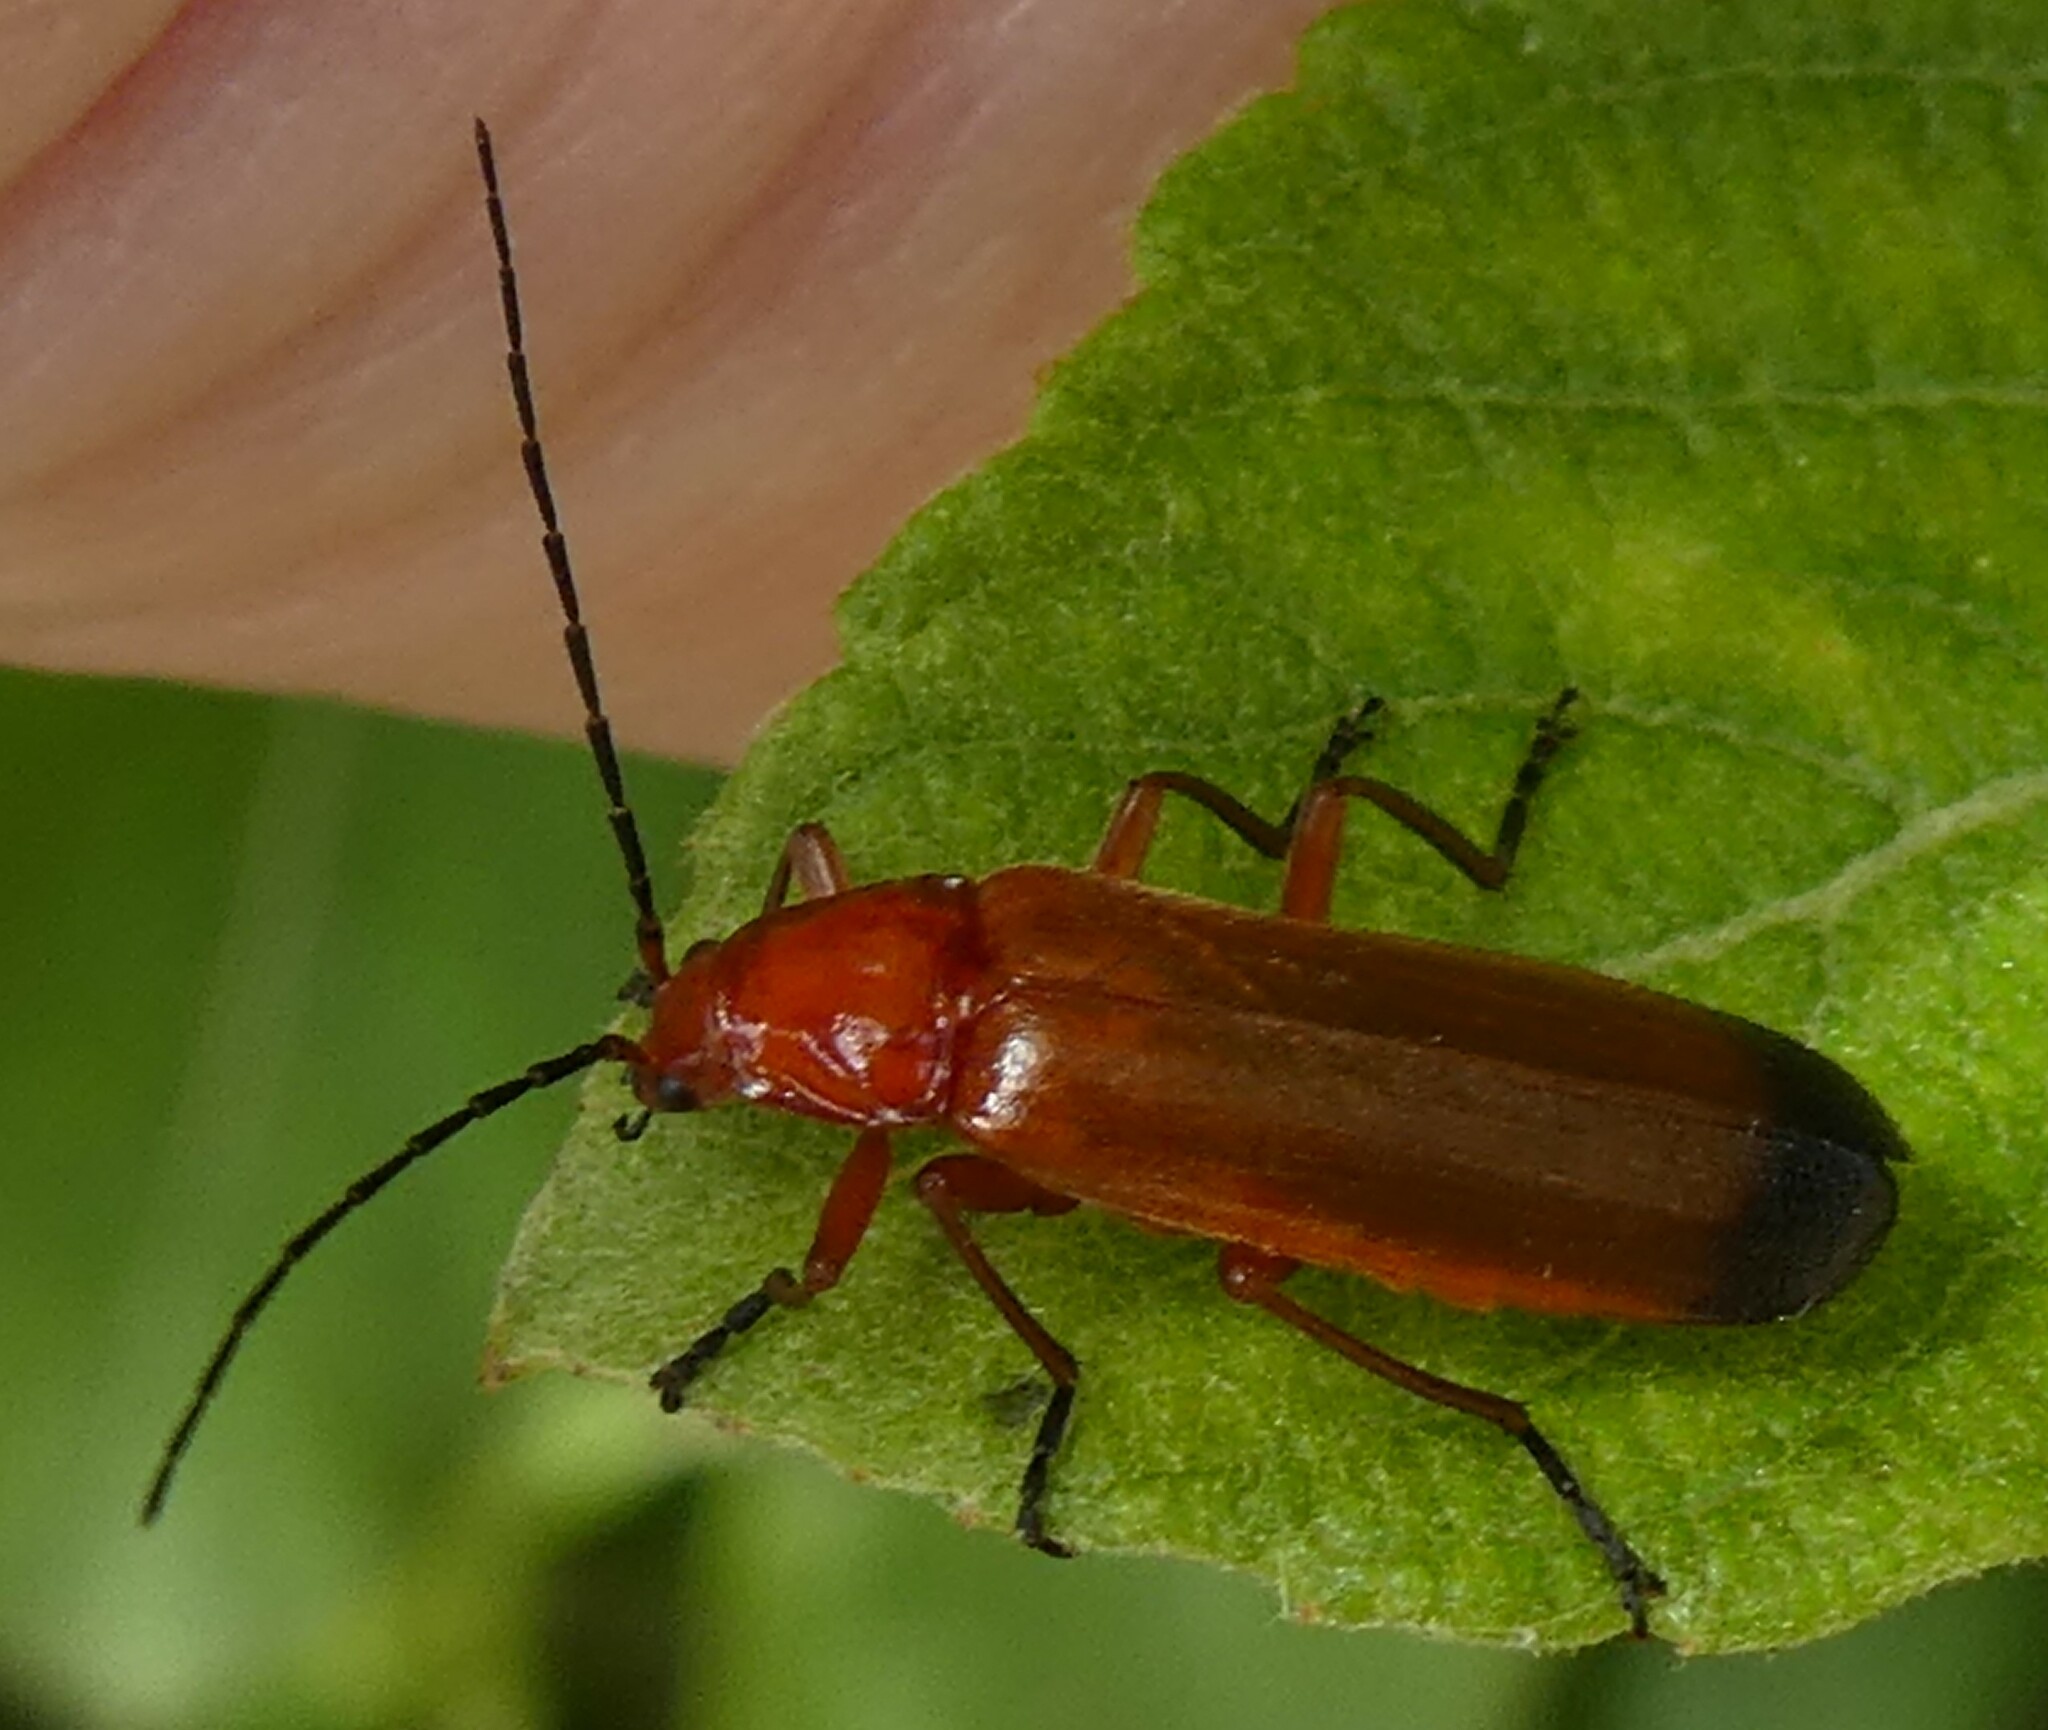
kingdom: Animalia
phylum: Arthropoda
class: Insecta
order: Coleoptera
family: Cantharidae
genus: Rhagonycha
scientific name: Rhagonycha fulva
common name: Common red soldier beetle
